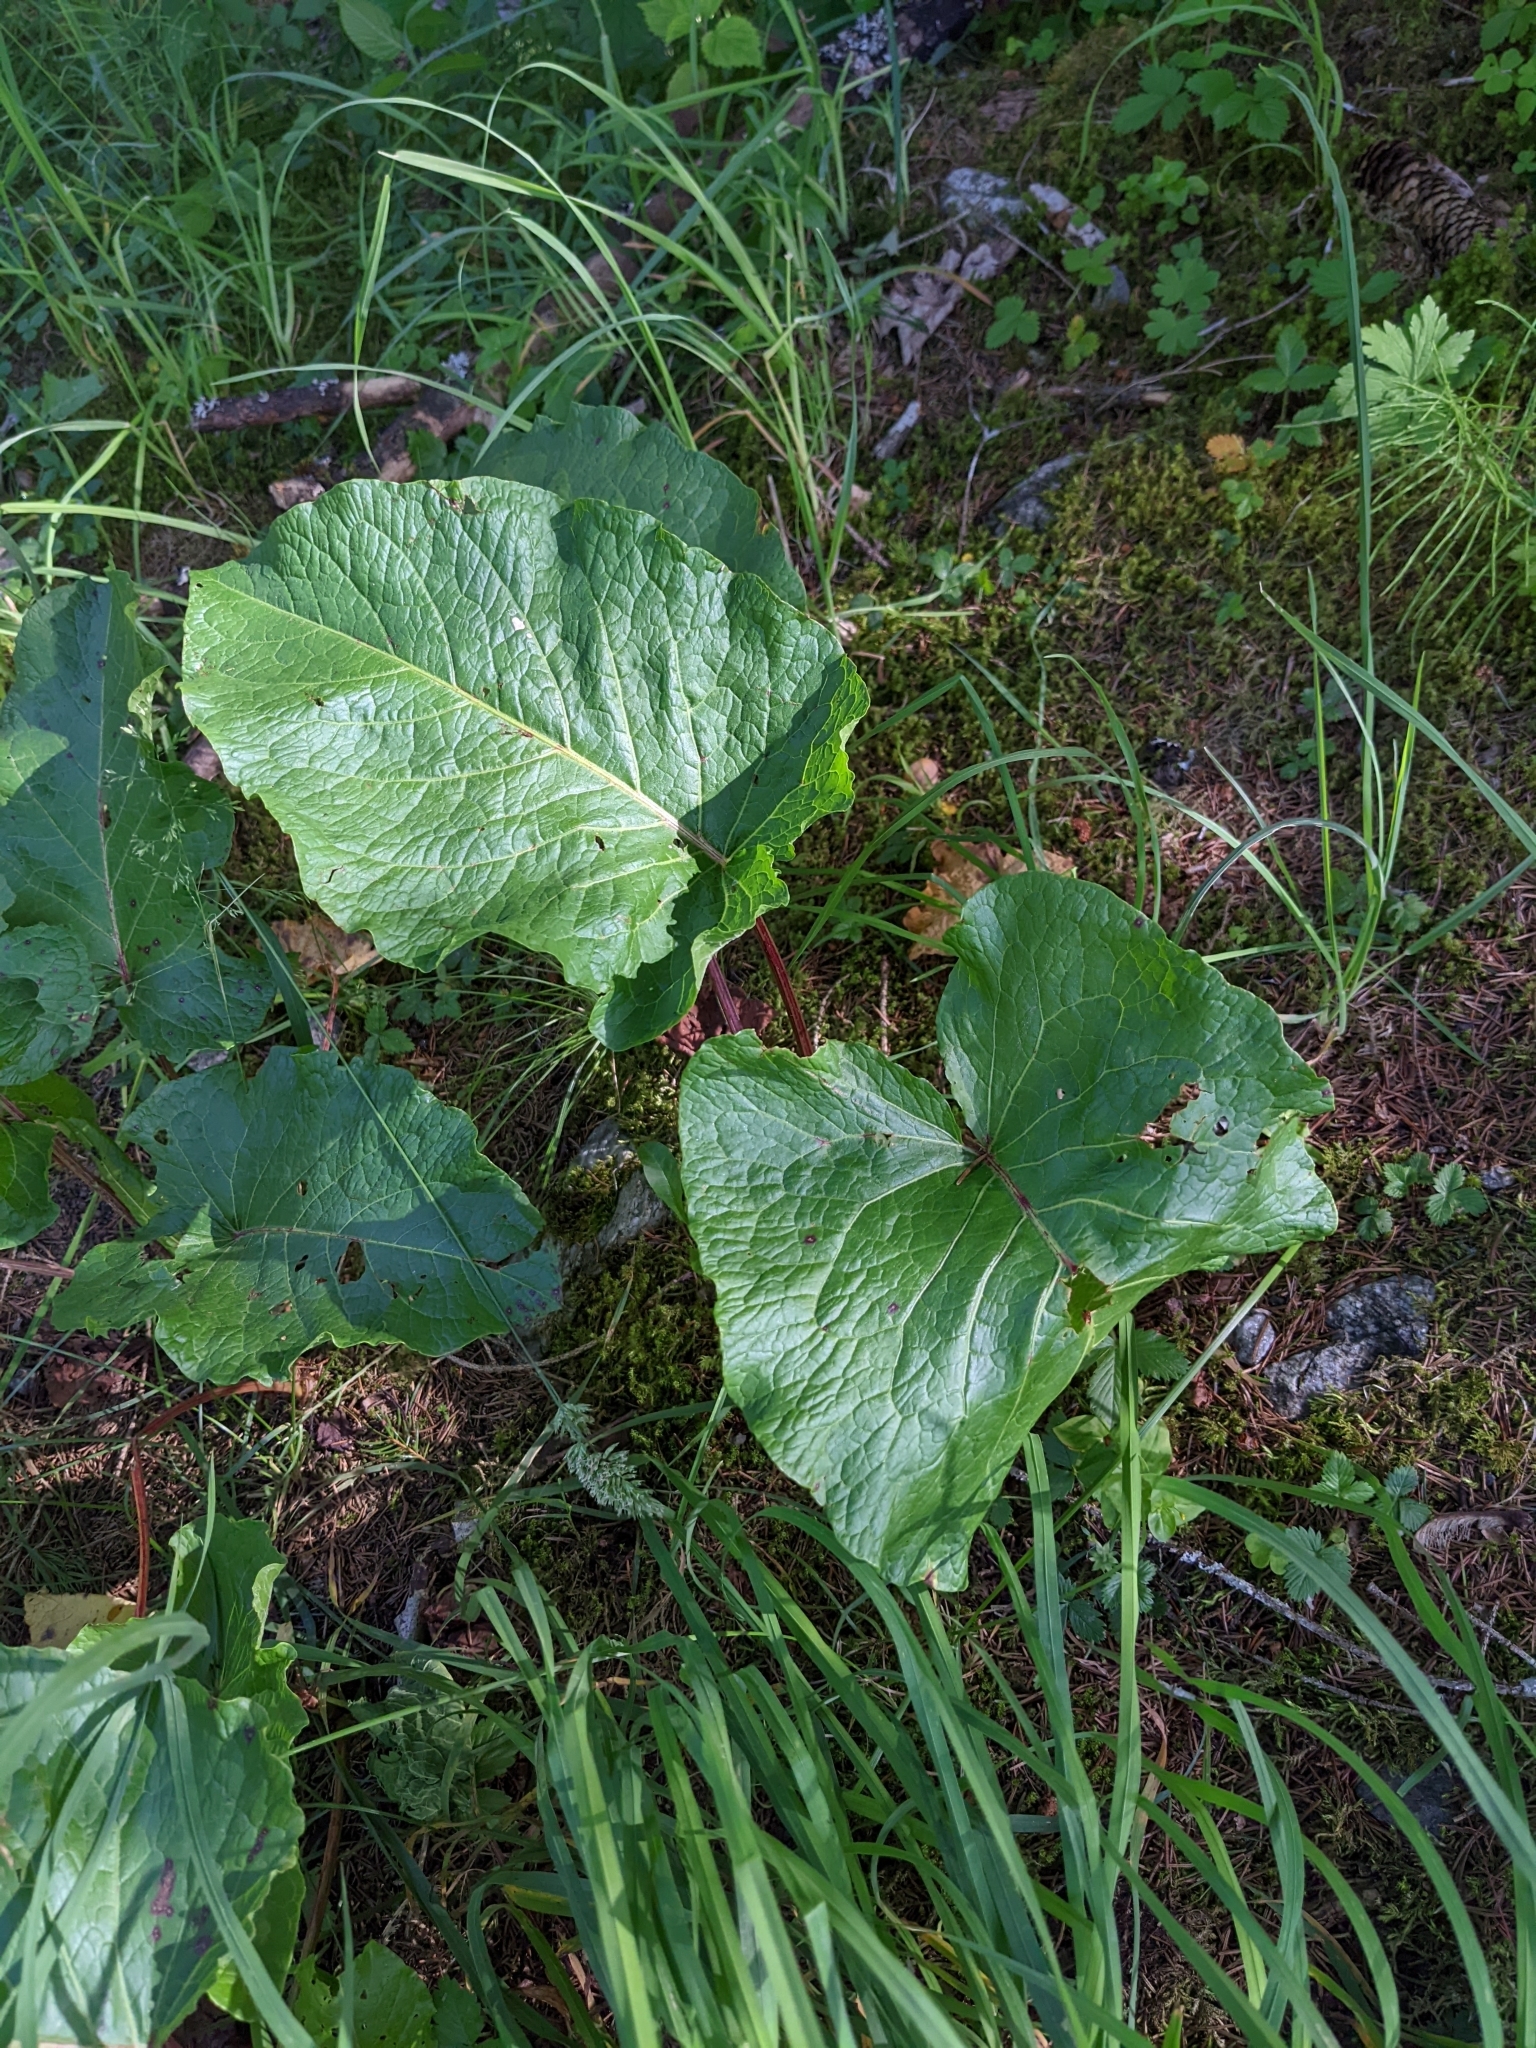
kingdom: Plantae
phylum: Tracheophyta
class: Magnoliopsida
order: Caryophyllales
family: Polygonaceae
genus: Rumex
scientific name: Rumex alpinus
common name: Alpine dock
